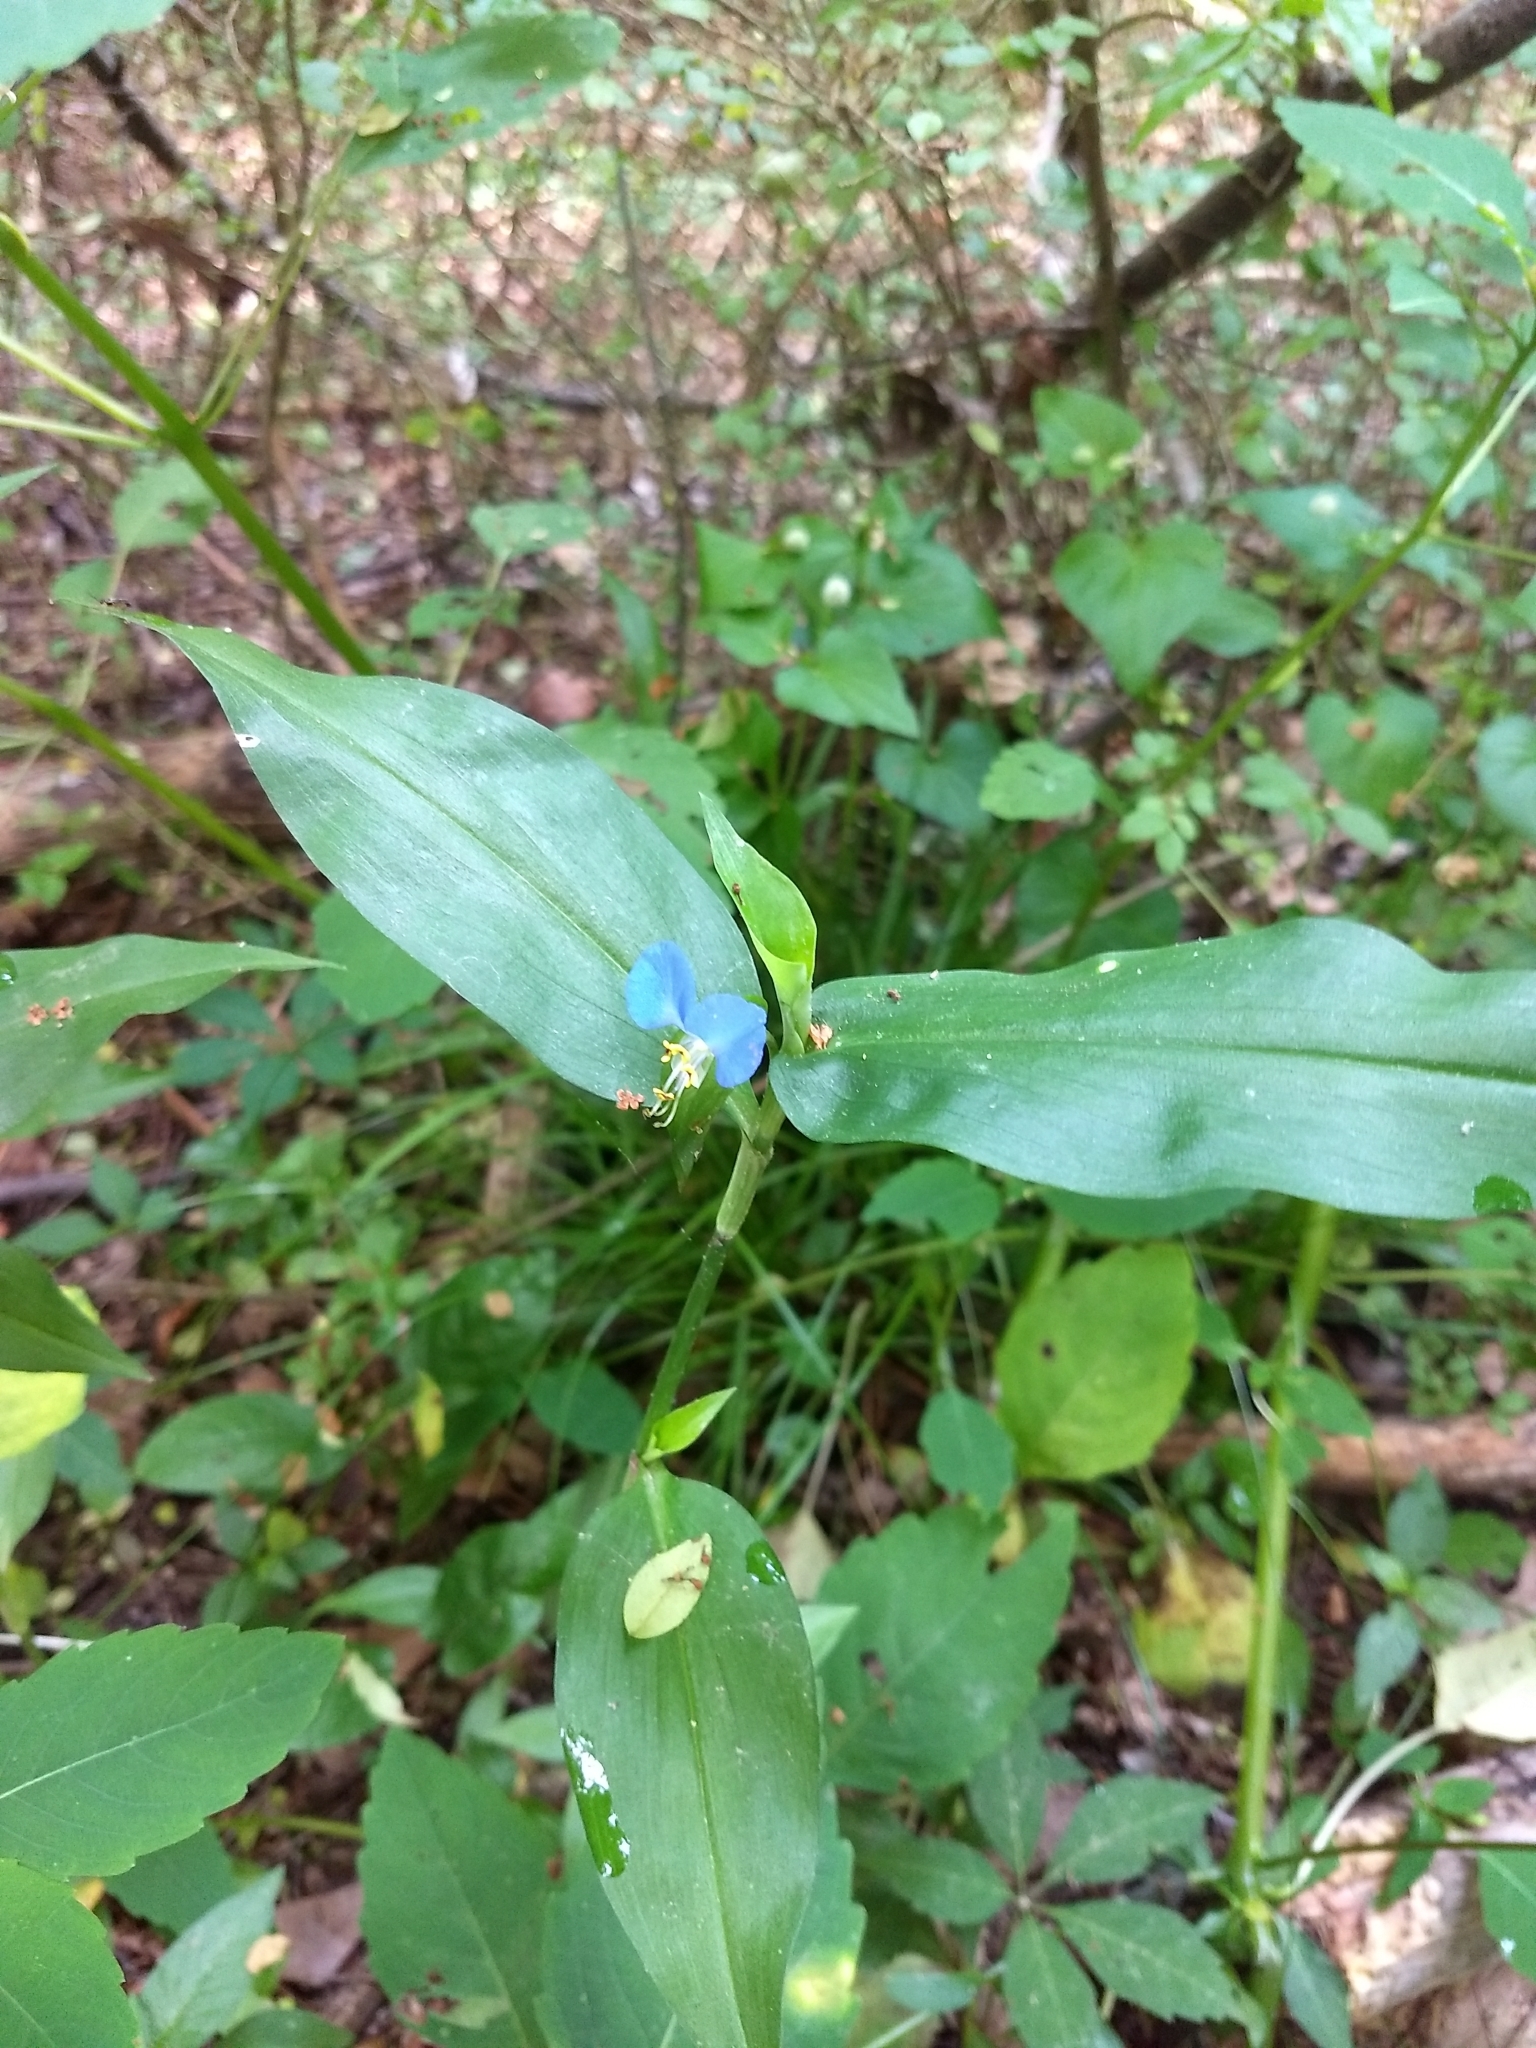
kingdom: Plantae
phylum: Tracheophyta
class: Liliopsida
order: Commelinales
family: Commelinaceae
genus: Commelina
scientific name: Commelina communis
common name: Asiatic dayflower
